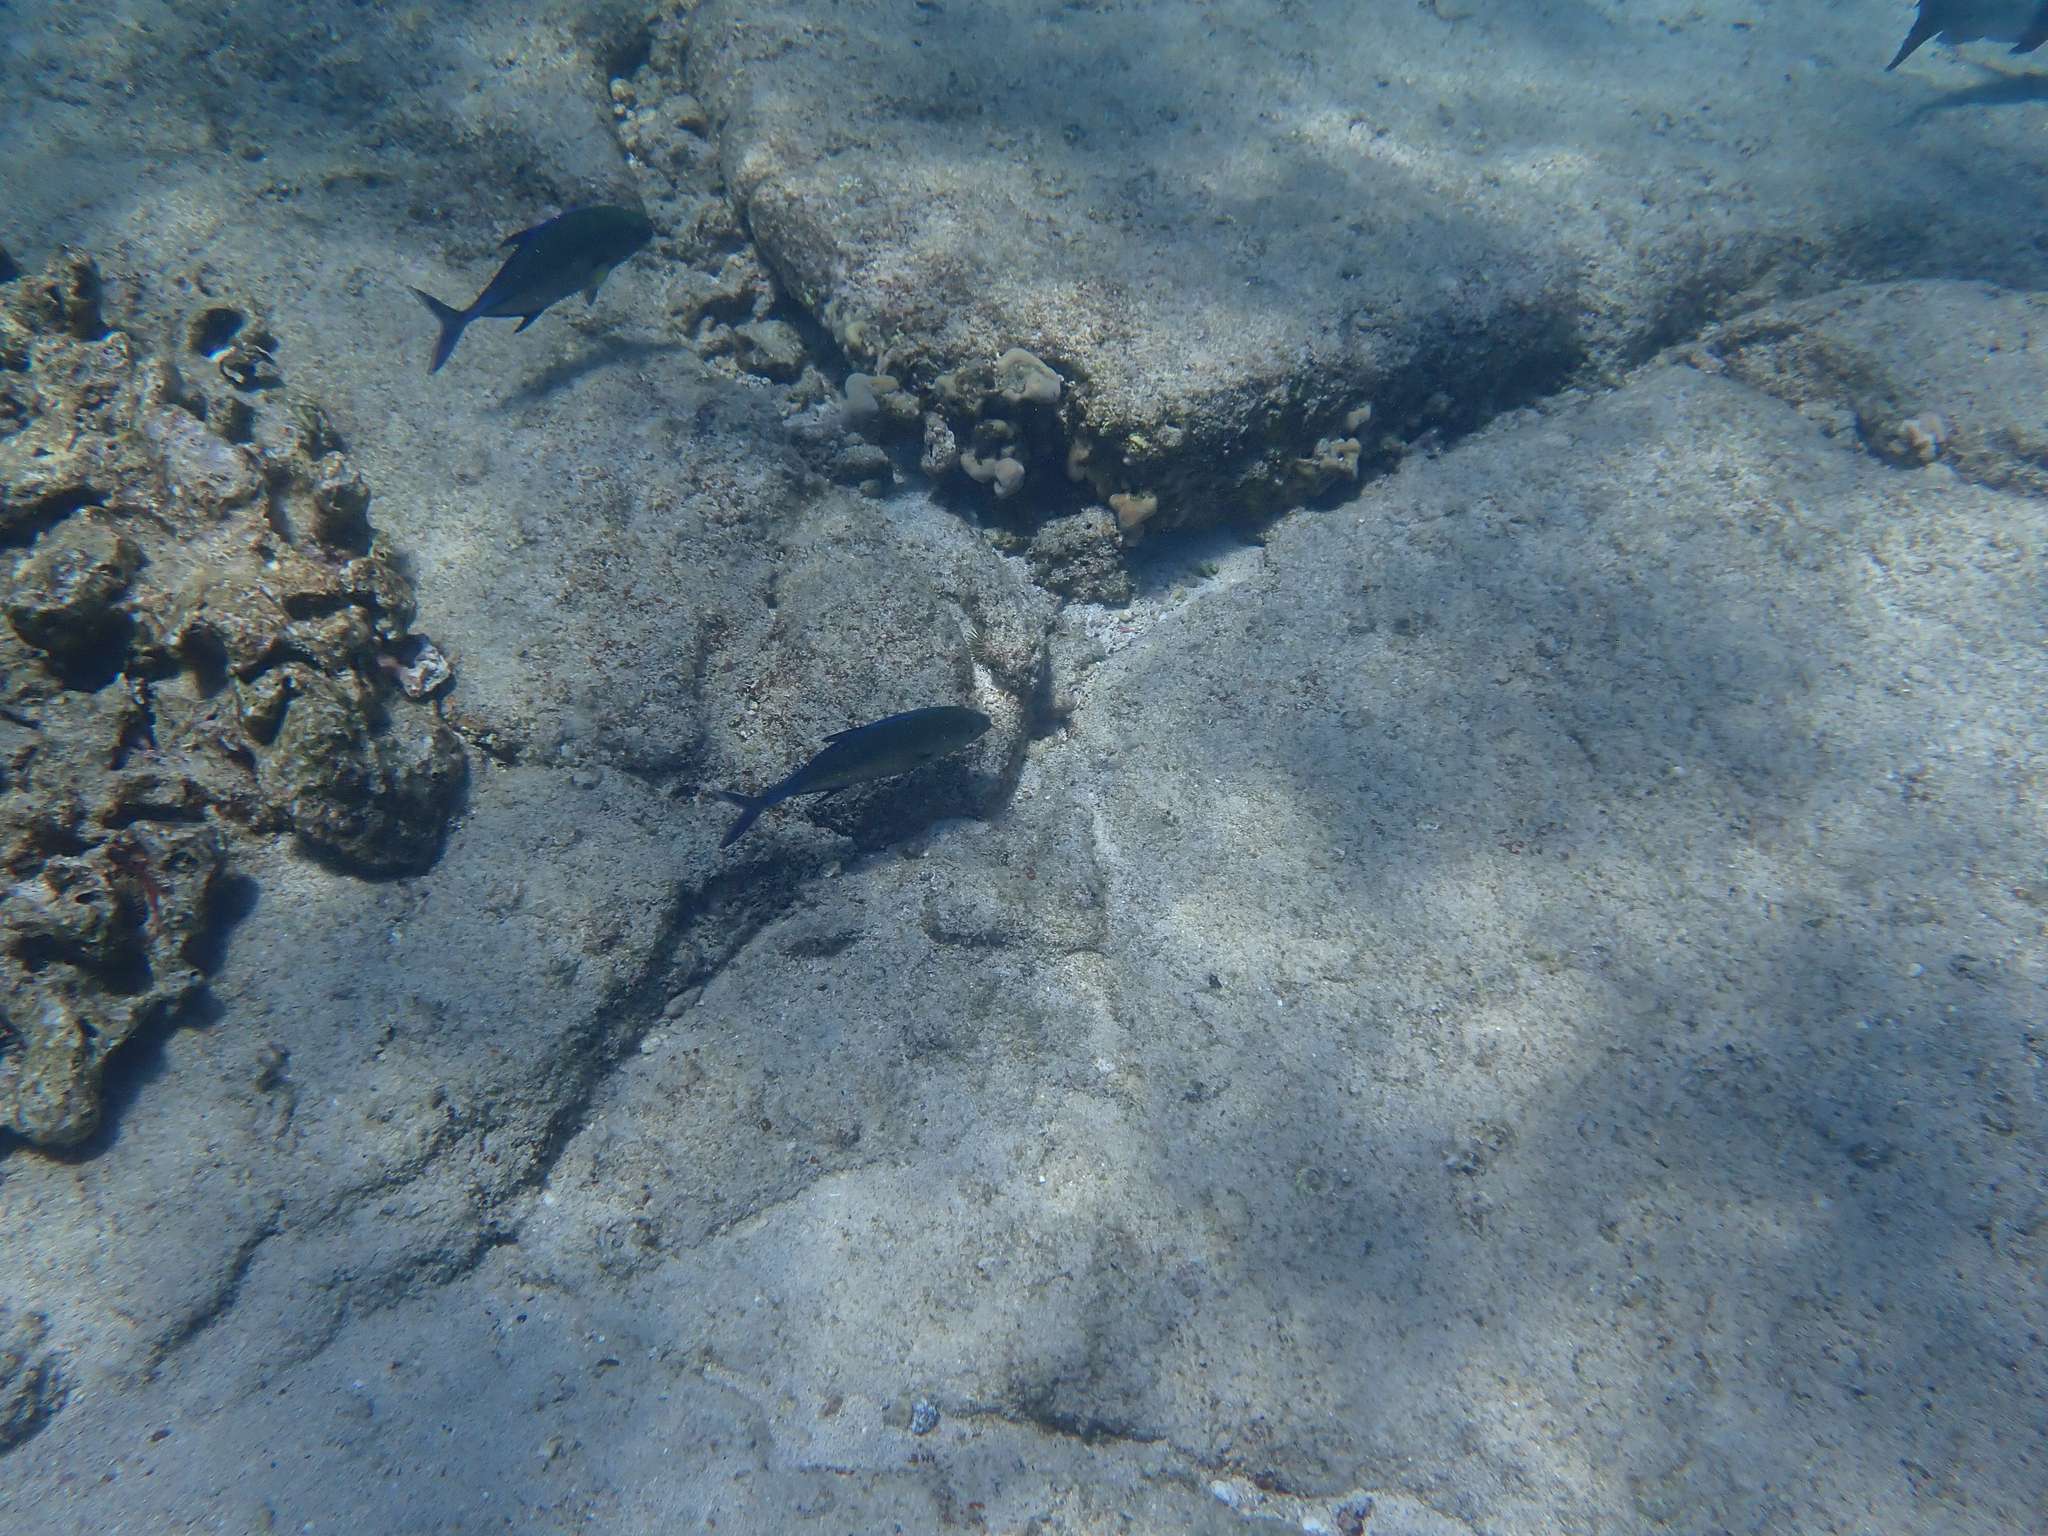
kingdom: Animalia
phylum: Chordata
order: Perciformes
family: Carangidae
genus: Caranx
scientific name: Caranx melampygus
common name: Bluefin trevally
